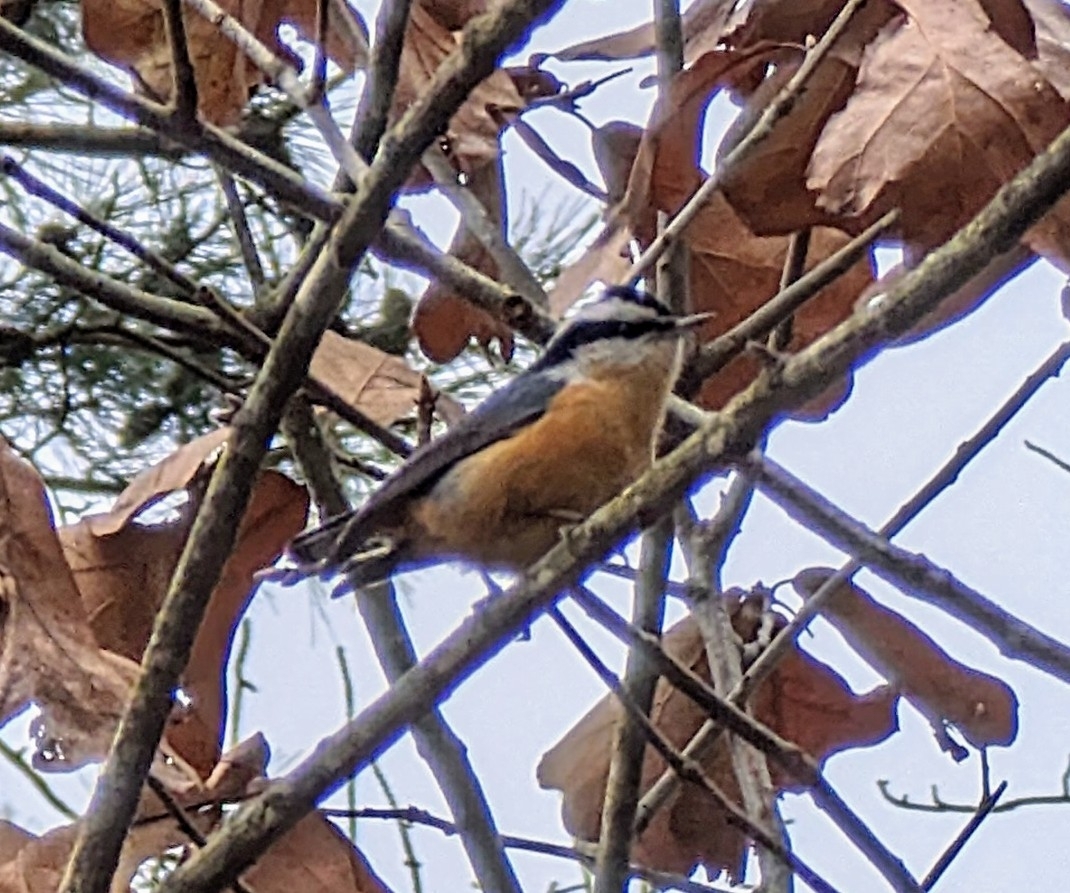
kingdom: Animalia
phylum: Chordata
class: Aves
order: Passeriformes
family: Sittidae
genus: Sitta
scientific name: Sitta canadensis
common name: Red-breasted nuthatch
